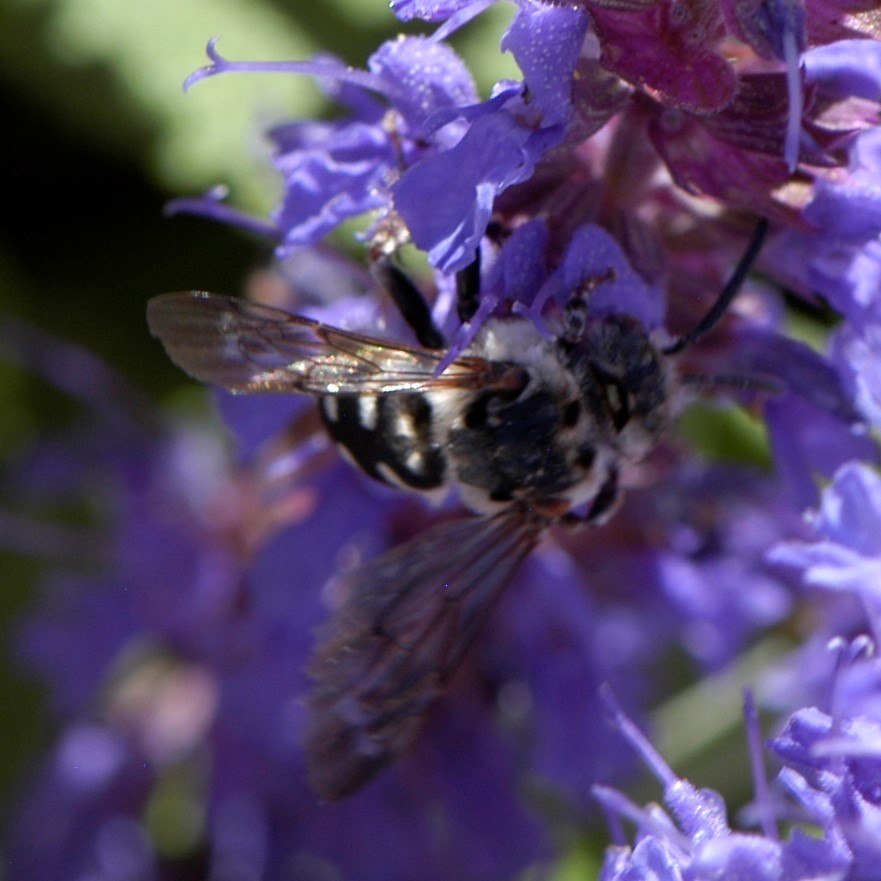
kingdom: Animalia
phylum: Arthropoda
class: Insecta
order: Hymenoptera
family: Apidae
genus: Brachymelecta
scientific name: Brachymelecta californica
